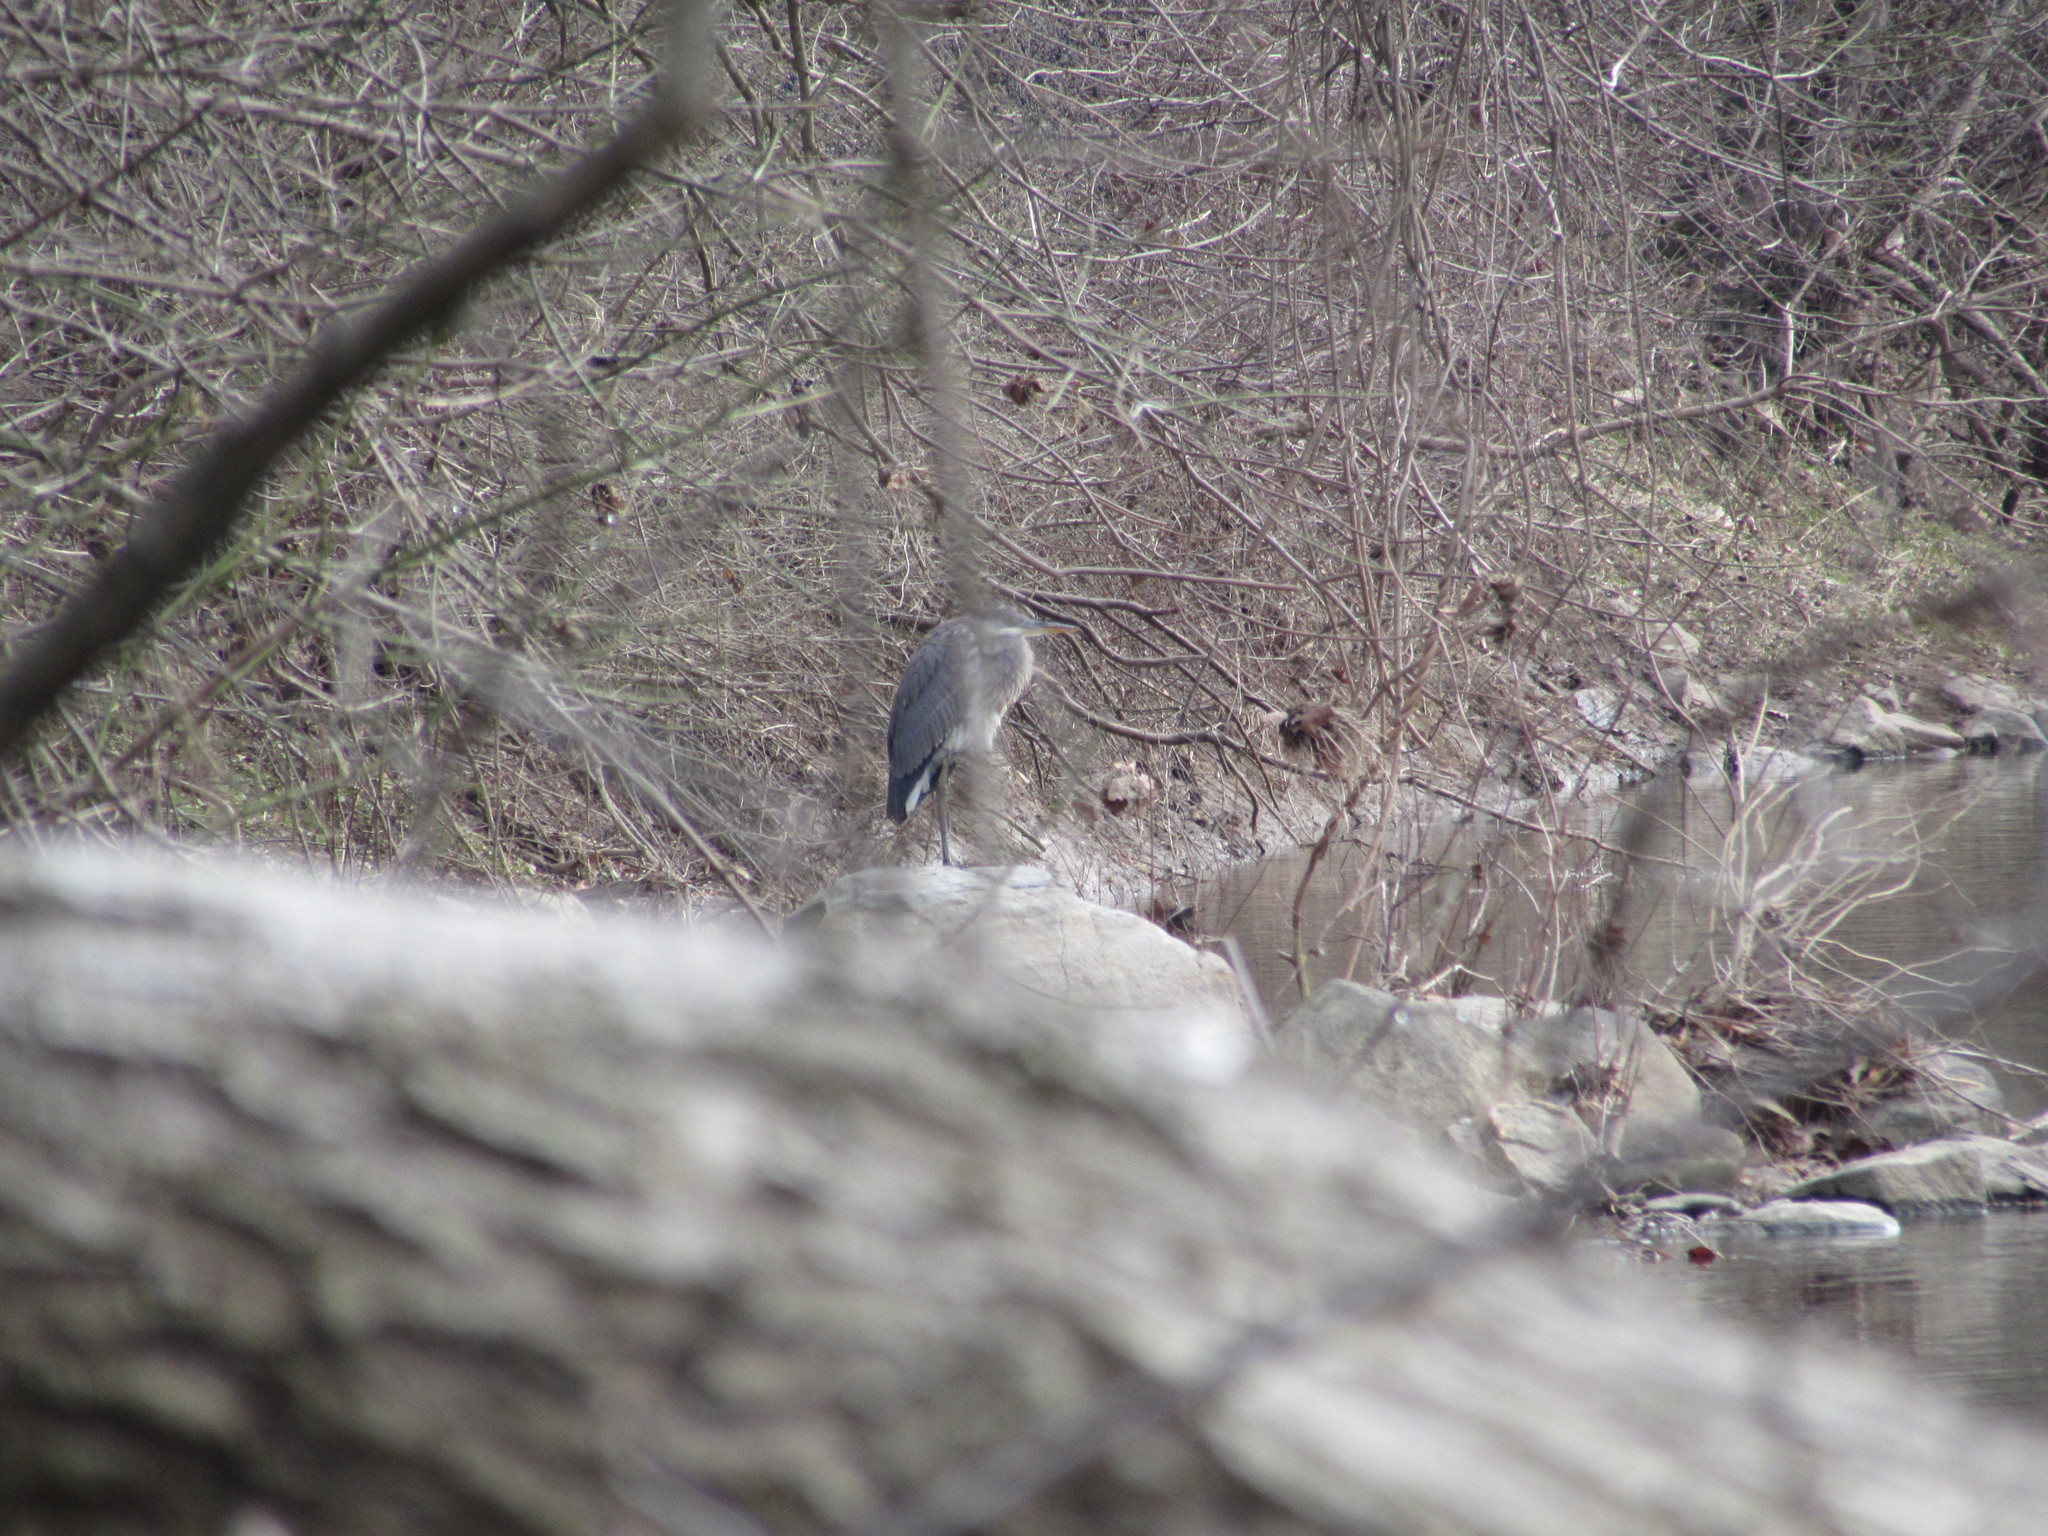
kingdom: Animalia
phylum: Chordata
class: Aves
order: Pelecaniformes
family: Ardeidae
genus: Ardea
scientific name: Ardea herodias
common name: Great blue heron
